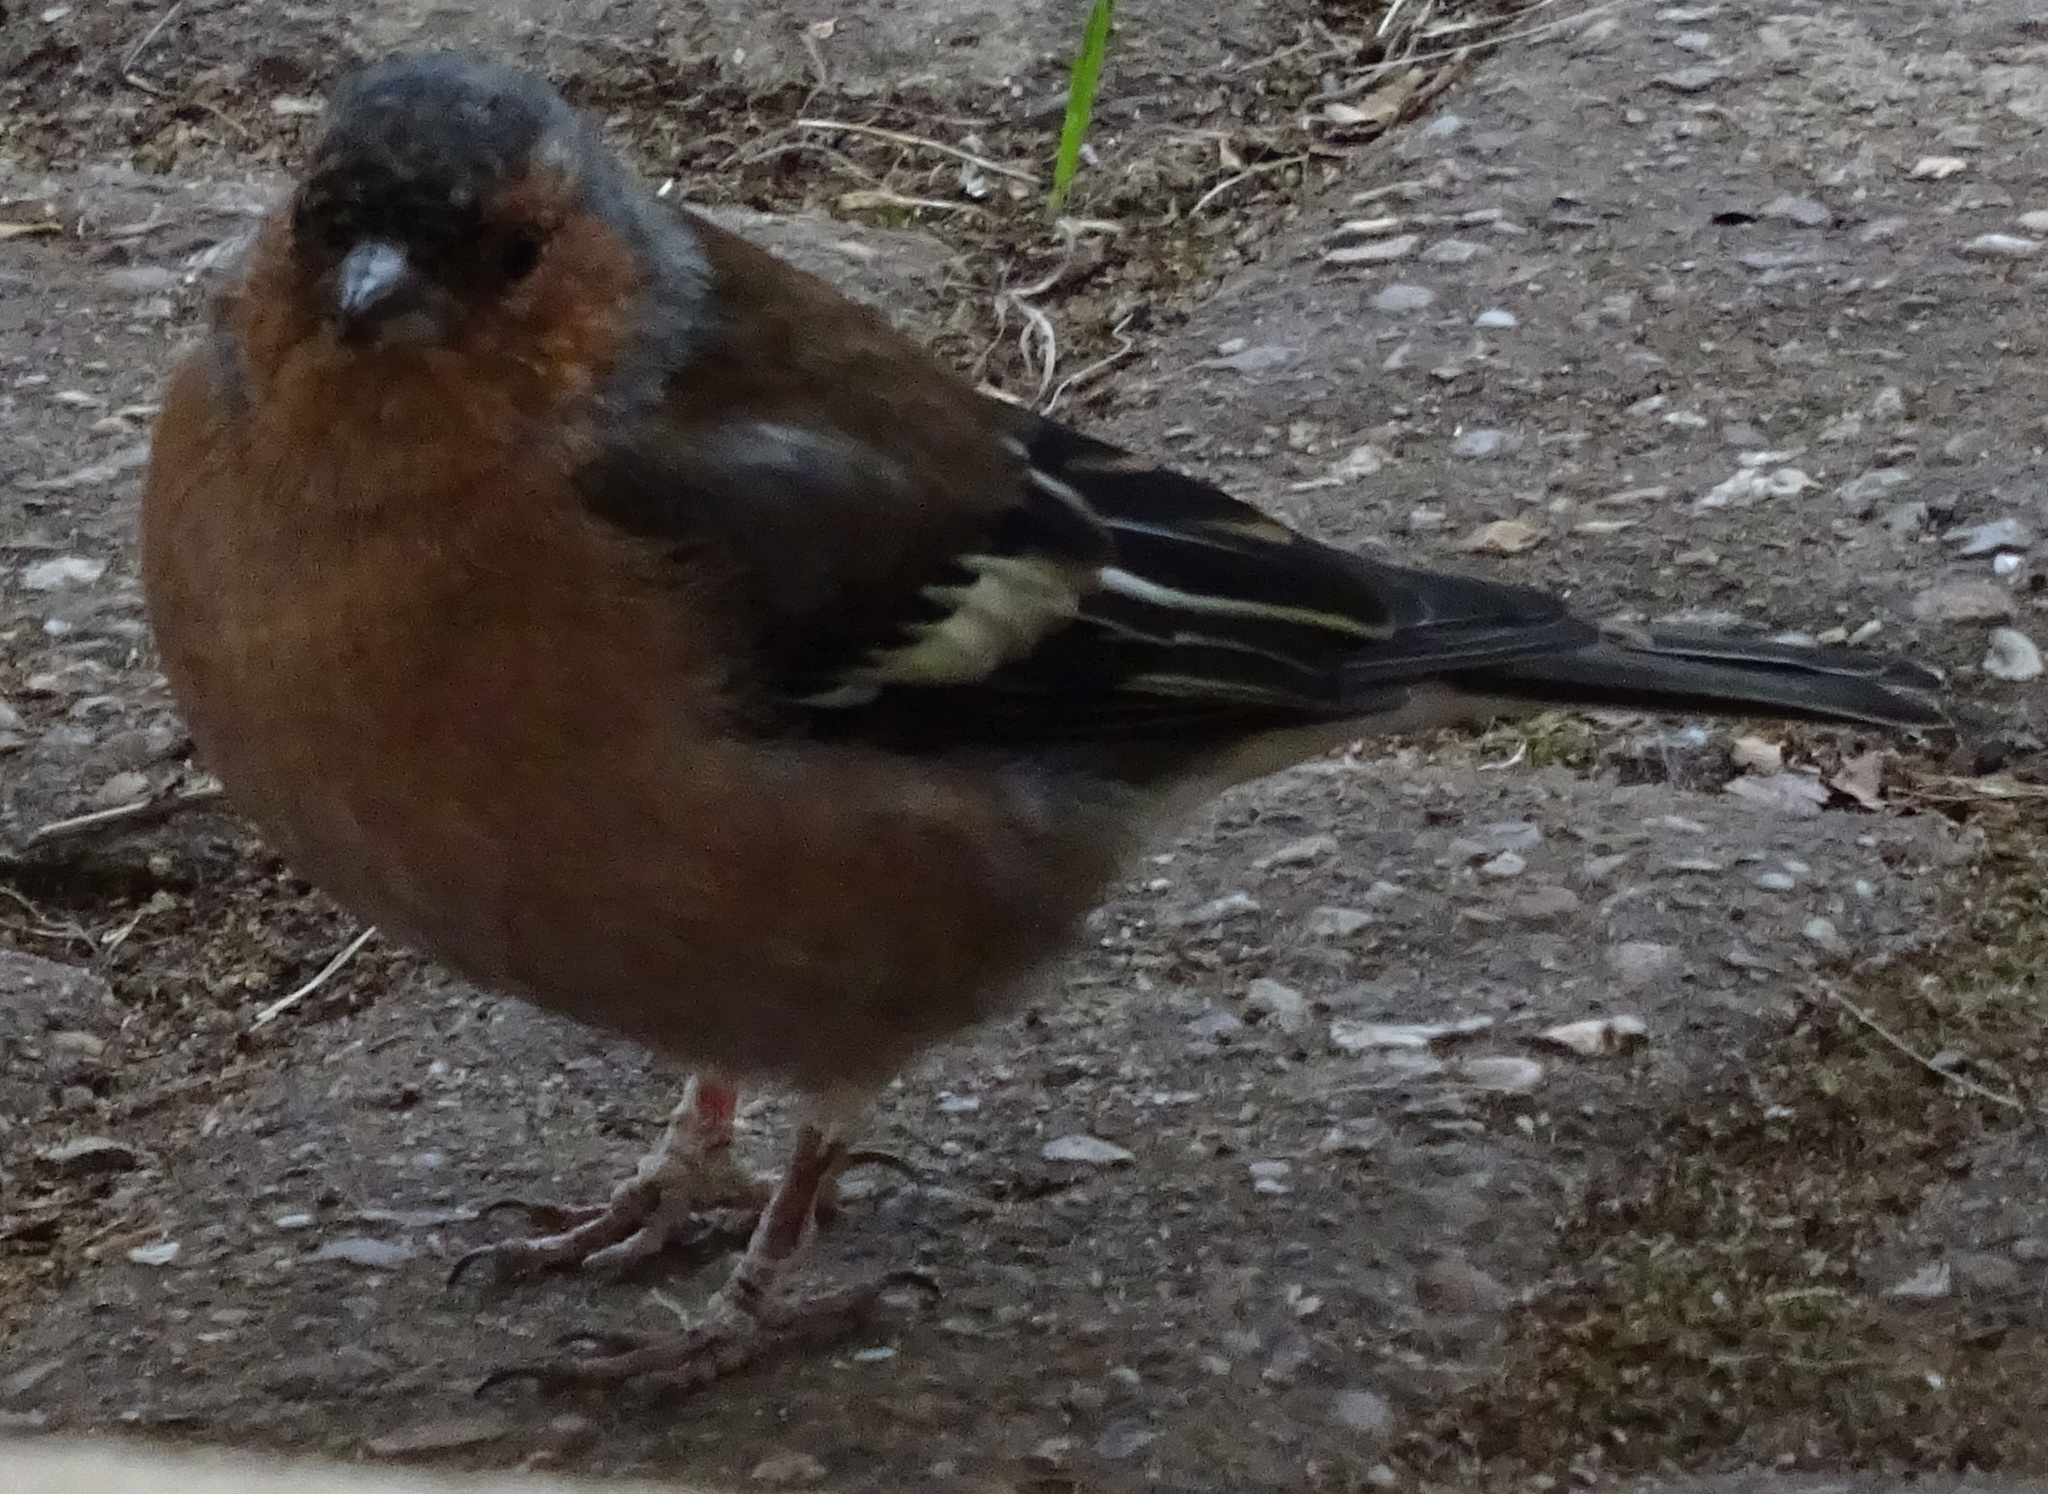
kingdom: Animalia
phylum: Chordata
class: Aves
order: Passeriformes
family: Fringillidae
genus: Fringilla
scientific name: Fringilla coelebs
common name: Common chaffinch
